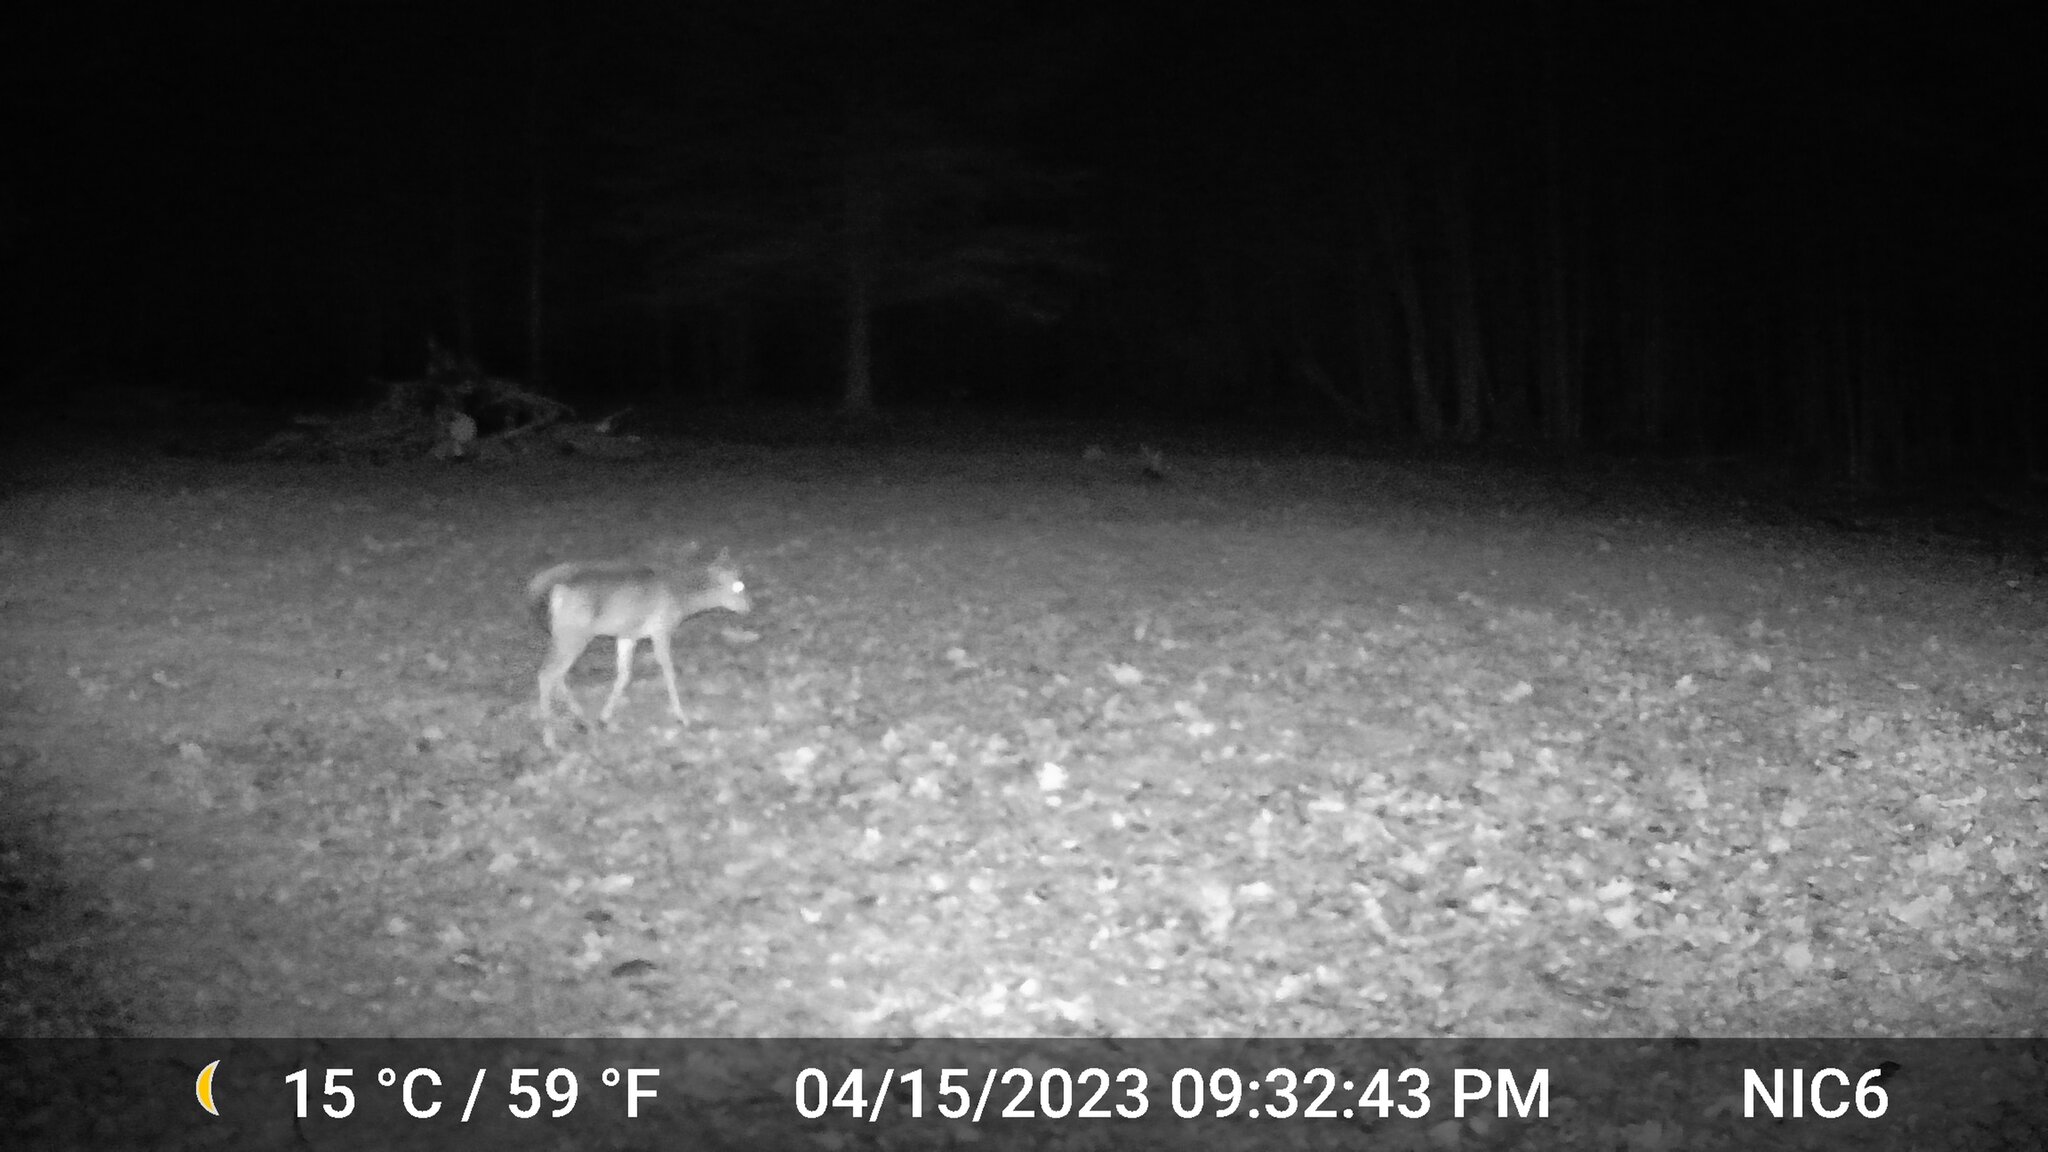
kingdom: Animalia
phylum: Chordata
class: Mammalia
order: Artiodactyla
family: Cervidae
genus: Odocoileus
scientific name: Odocoileus virginianus
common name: White-tailed deer
